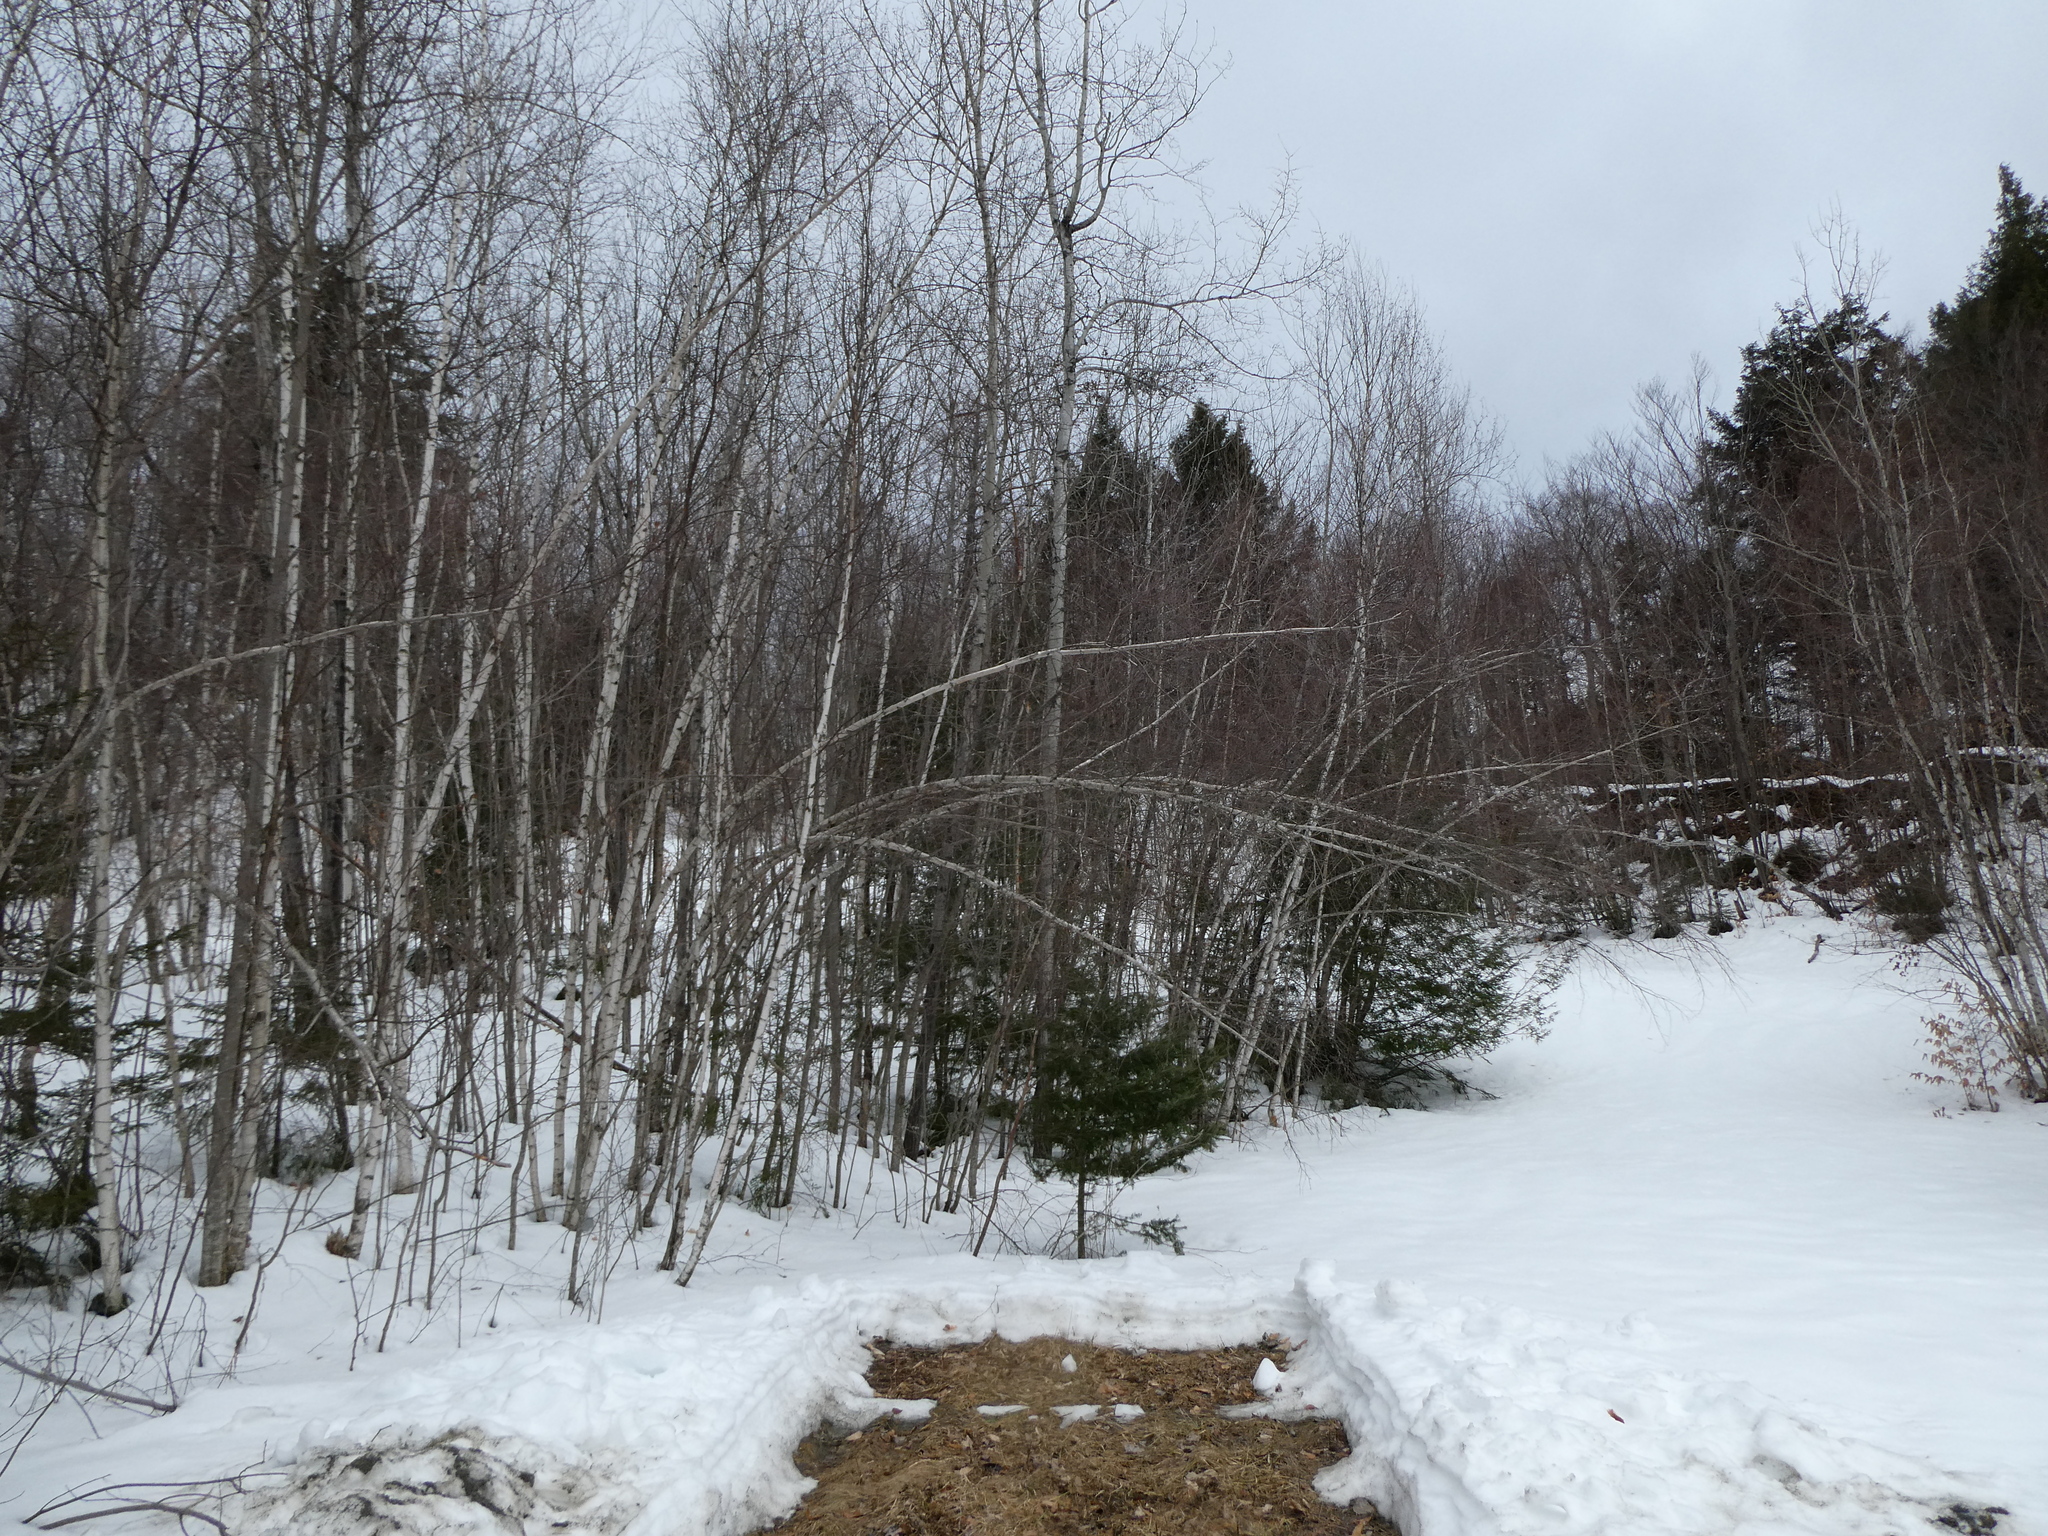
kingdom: Plantae
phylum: Tracheophyta
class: Magnoliopsida
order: Fagales
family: Betulaceae
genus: Betula
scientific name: Betula populifolia
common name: Fire birch
